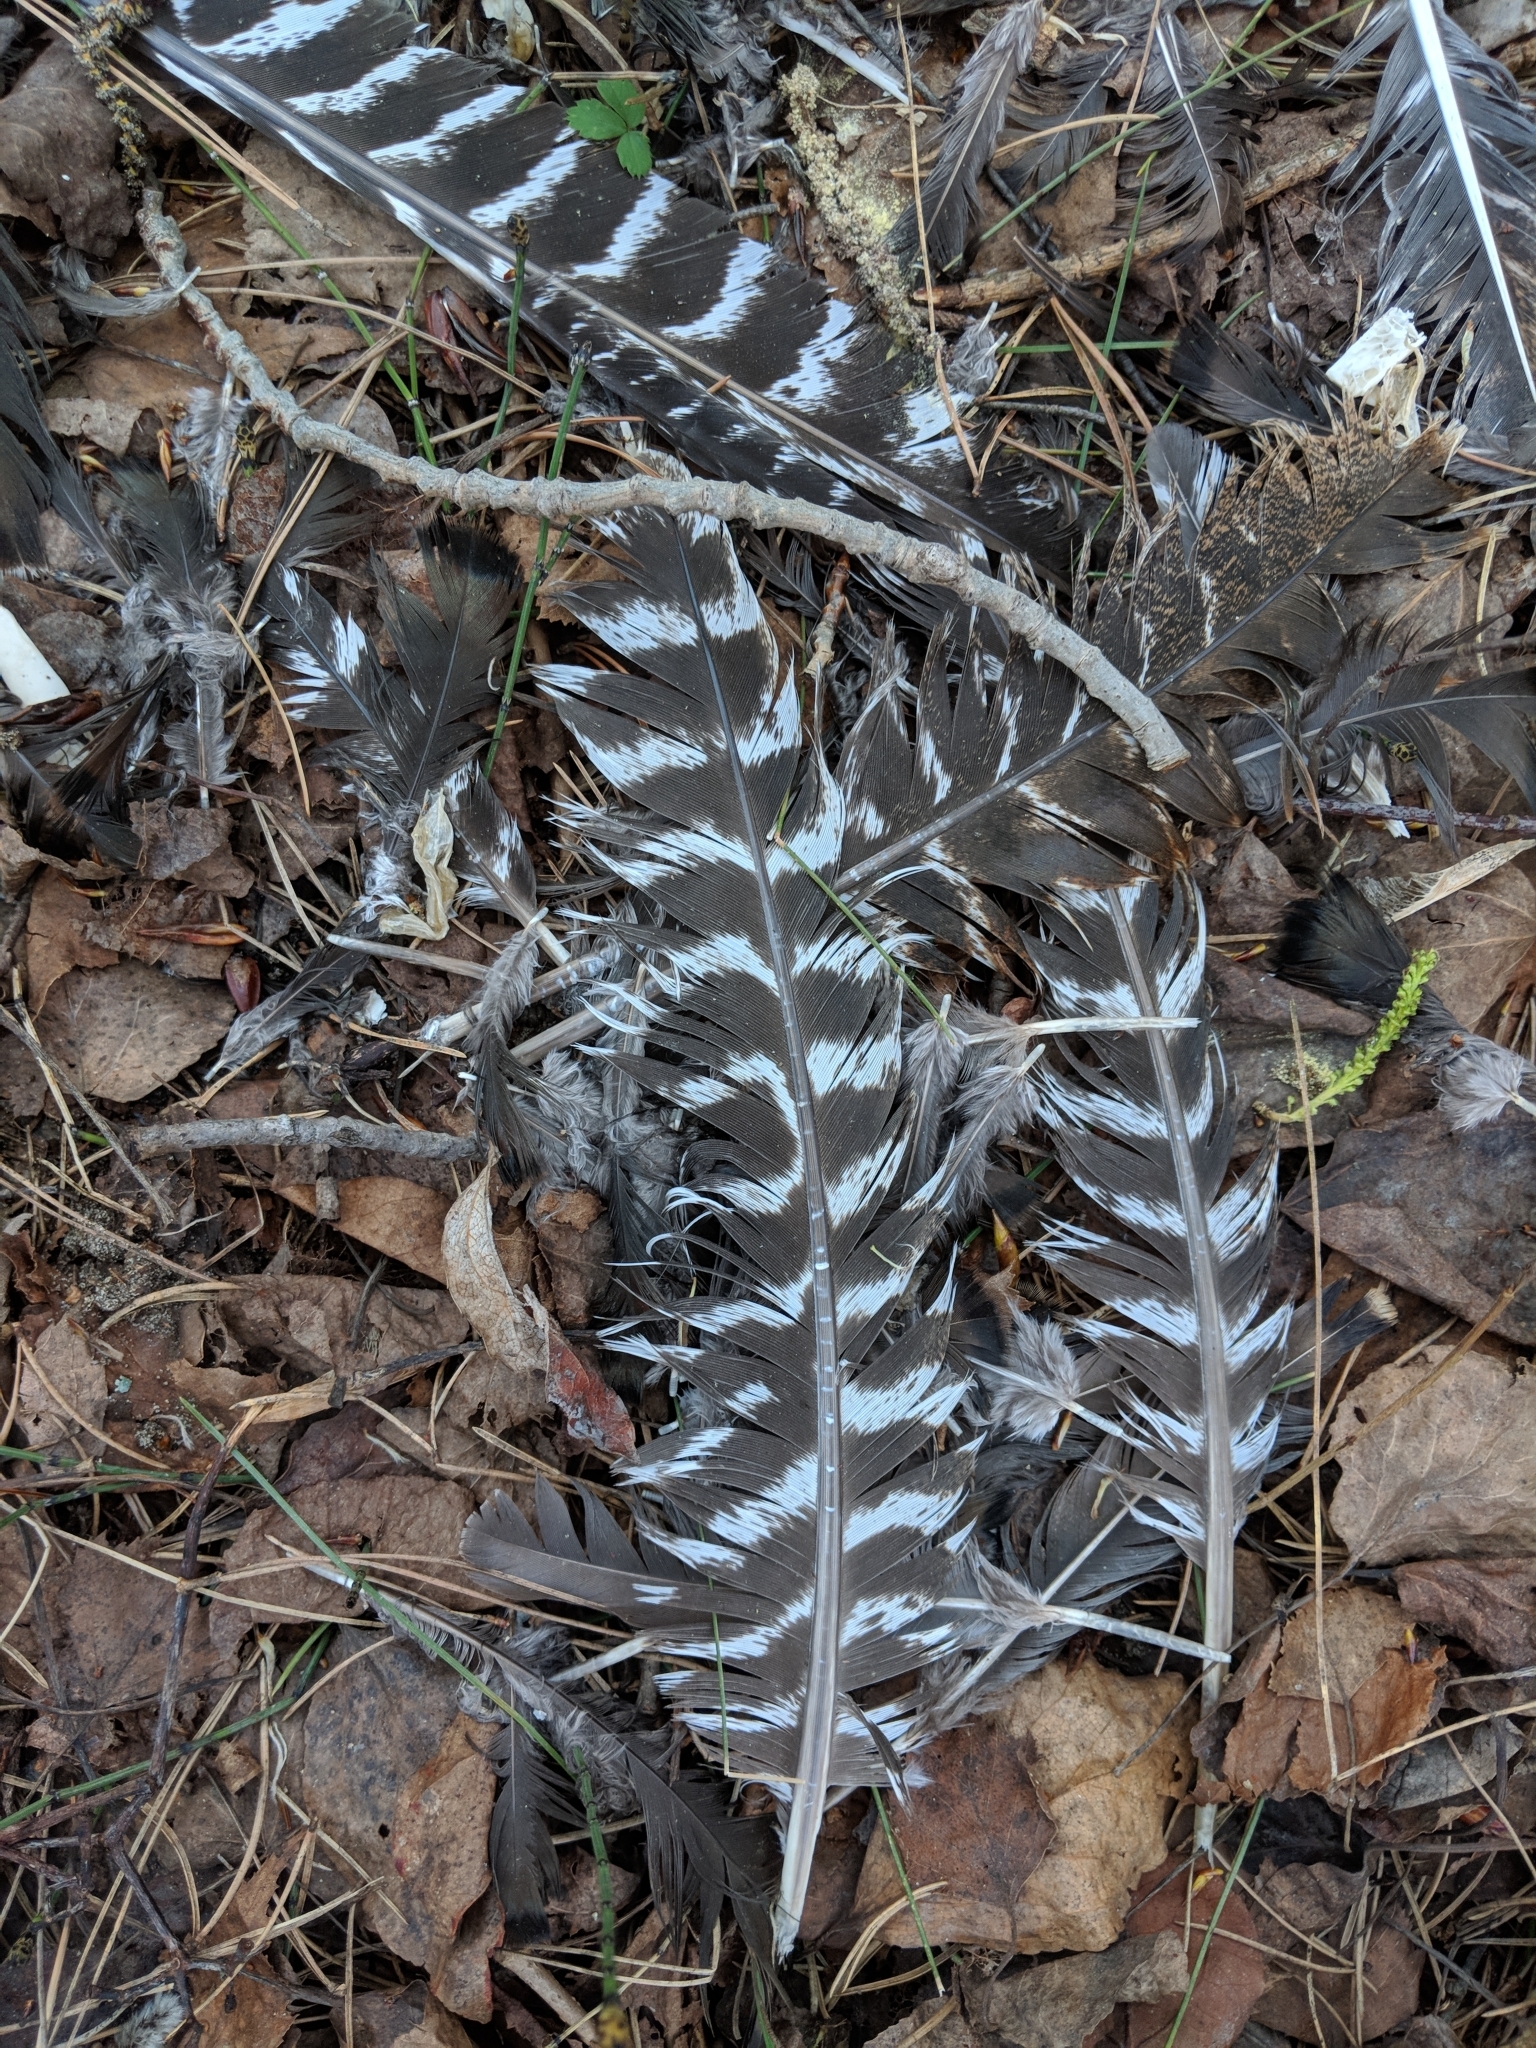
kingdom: Animalia
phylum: Chordata
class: Aves
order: Galliformes
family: Phasianidae
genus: Meleagris
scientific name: Meleagris gallopavo
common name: Wild turkey
